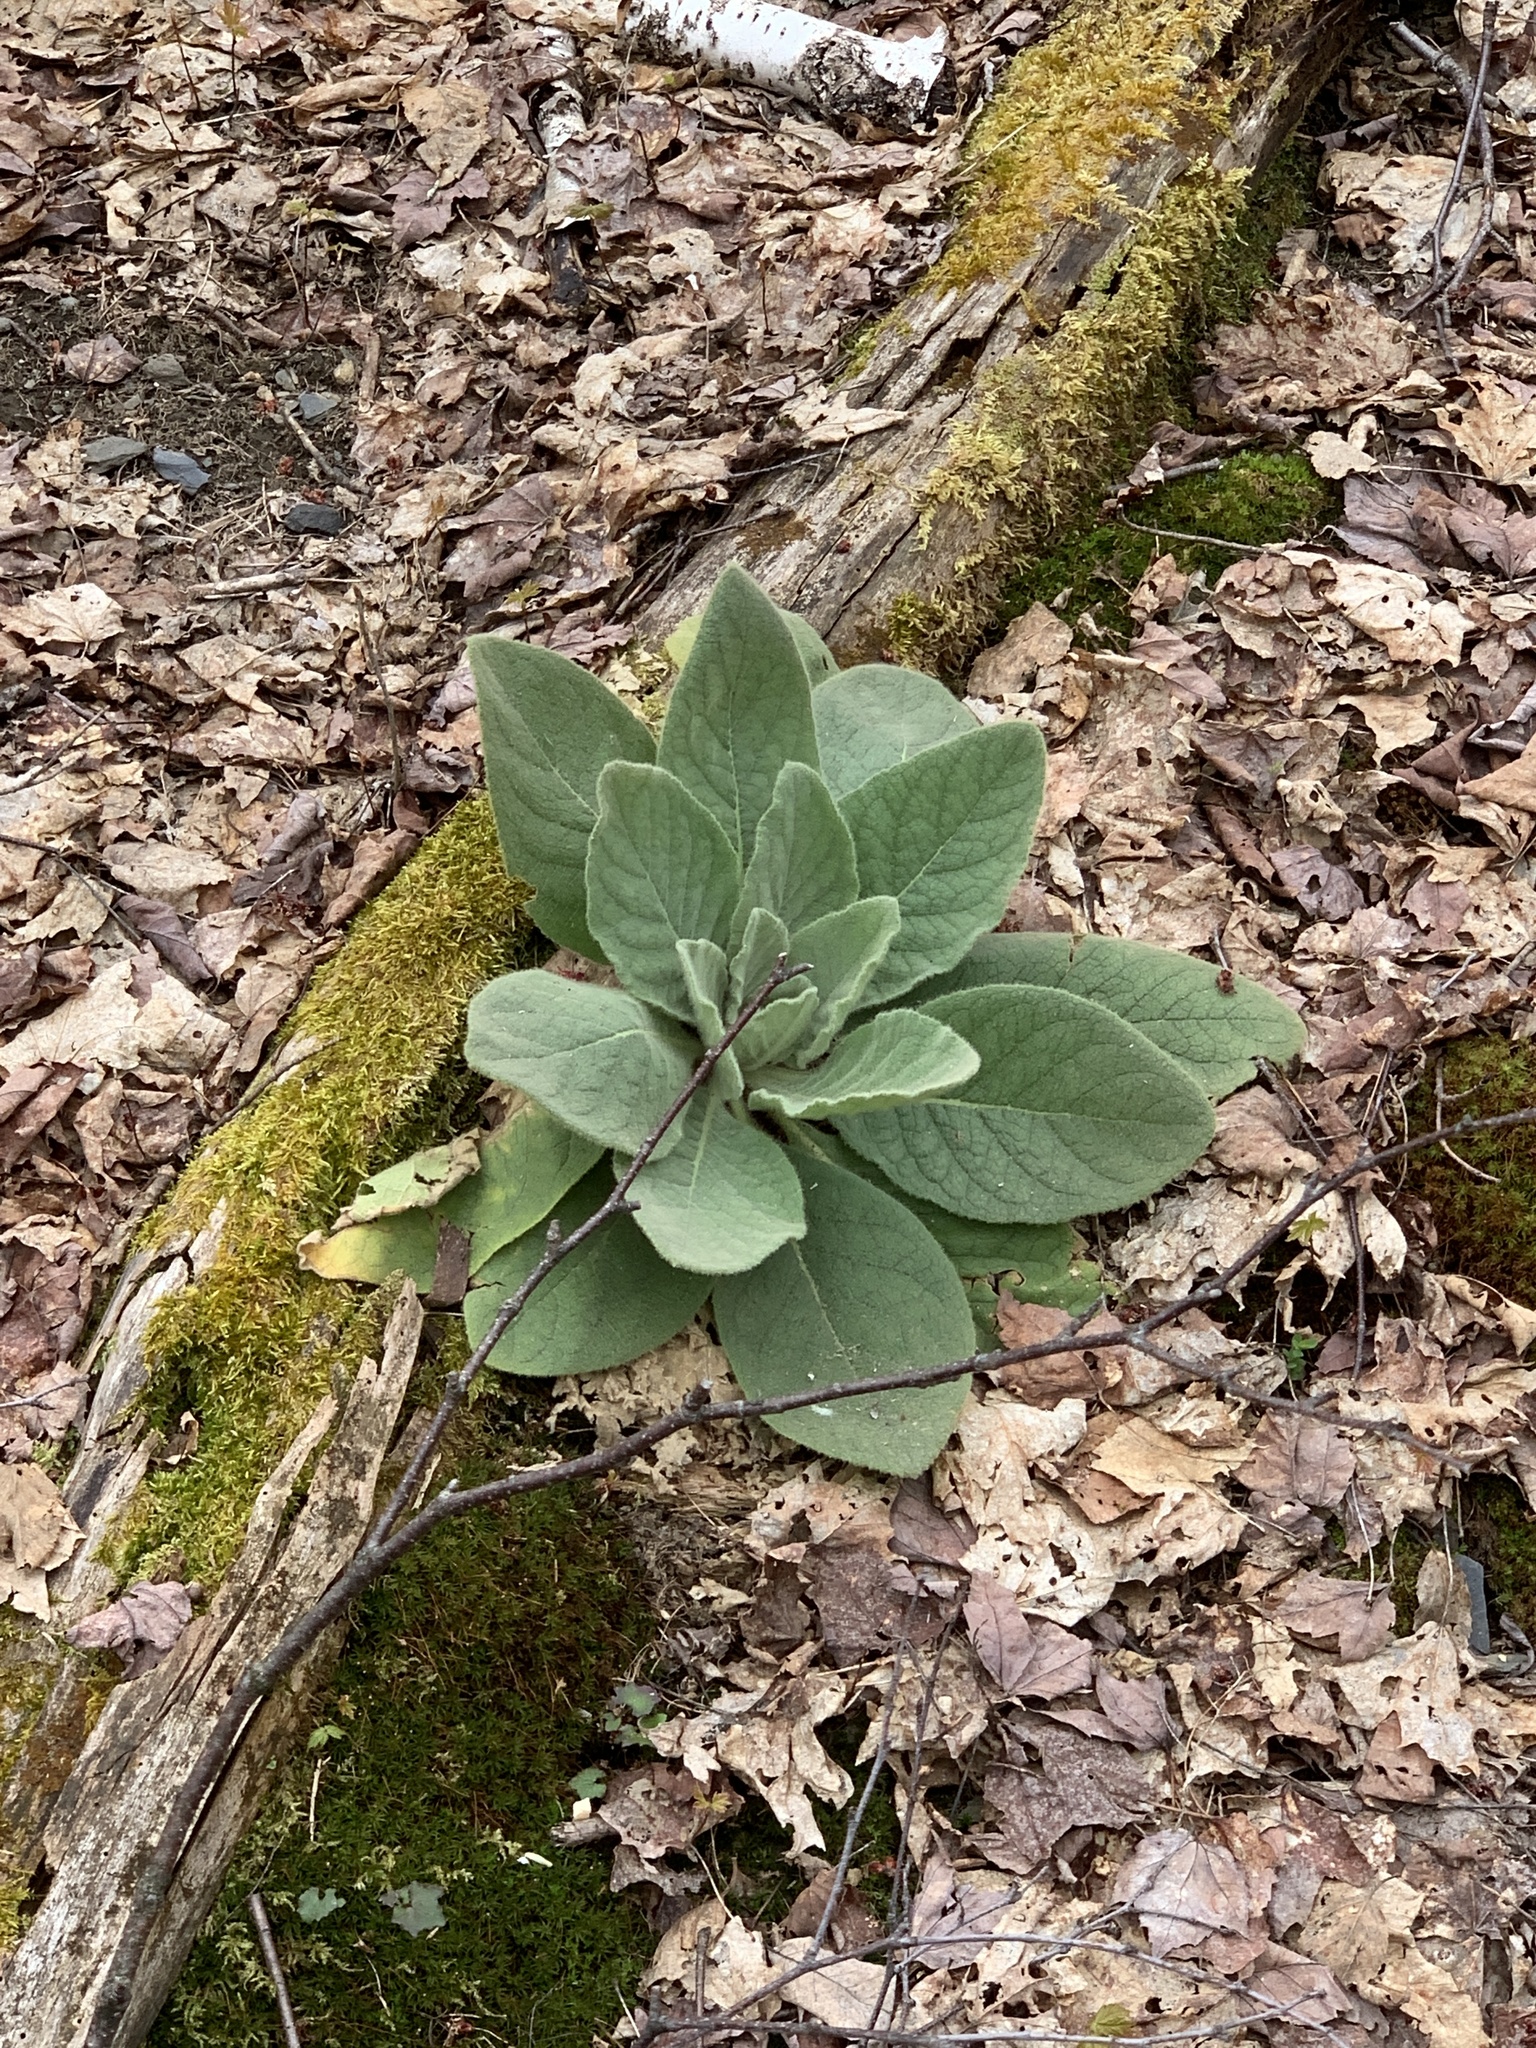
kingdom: Plantae
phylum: Tracheophyta
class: Magnoliopsida
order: Lamiales
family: Scrophulariaceae
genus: Verbascum
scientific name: Verbascum thapsus
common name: Common mullein
